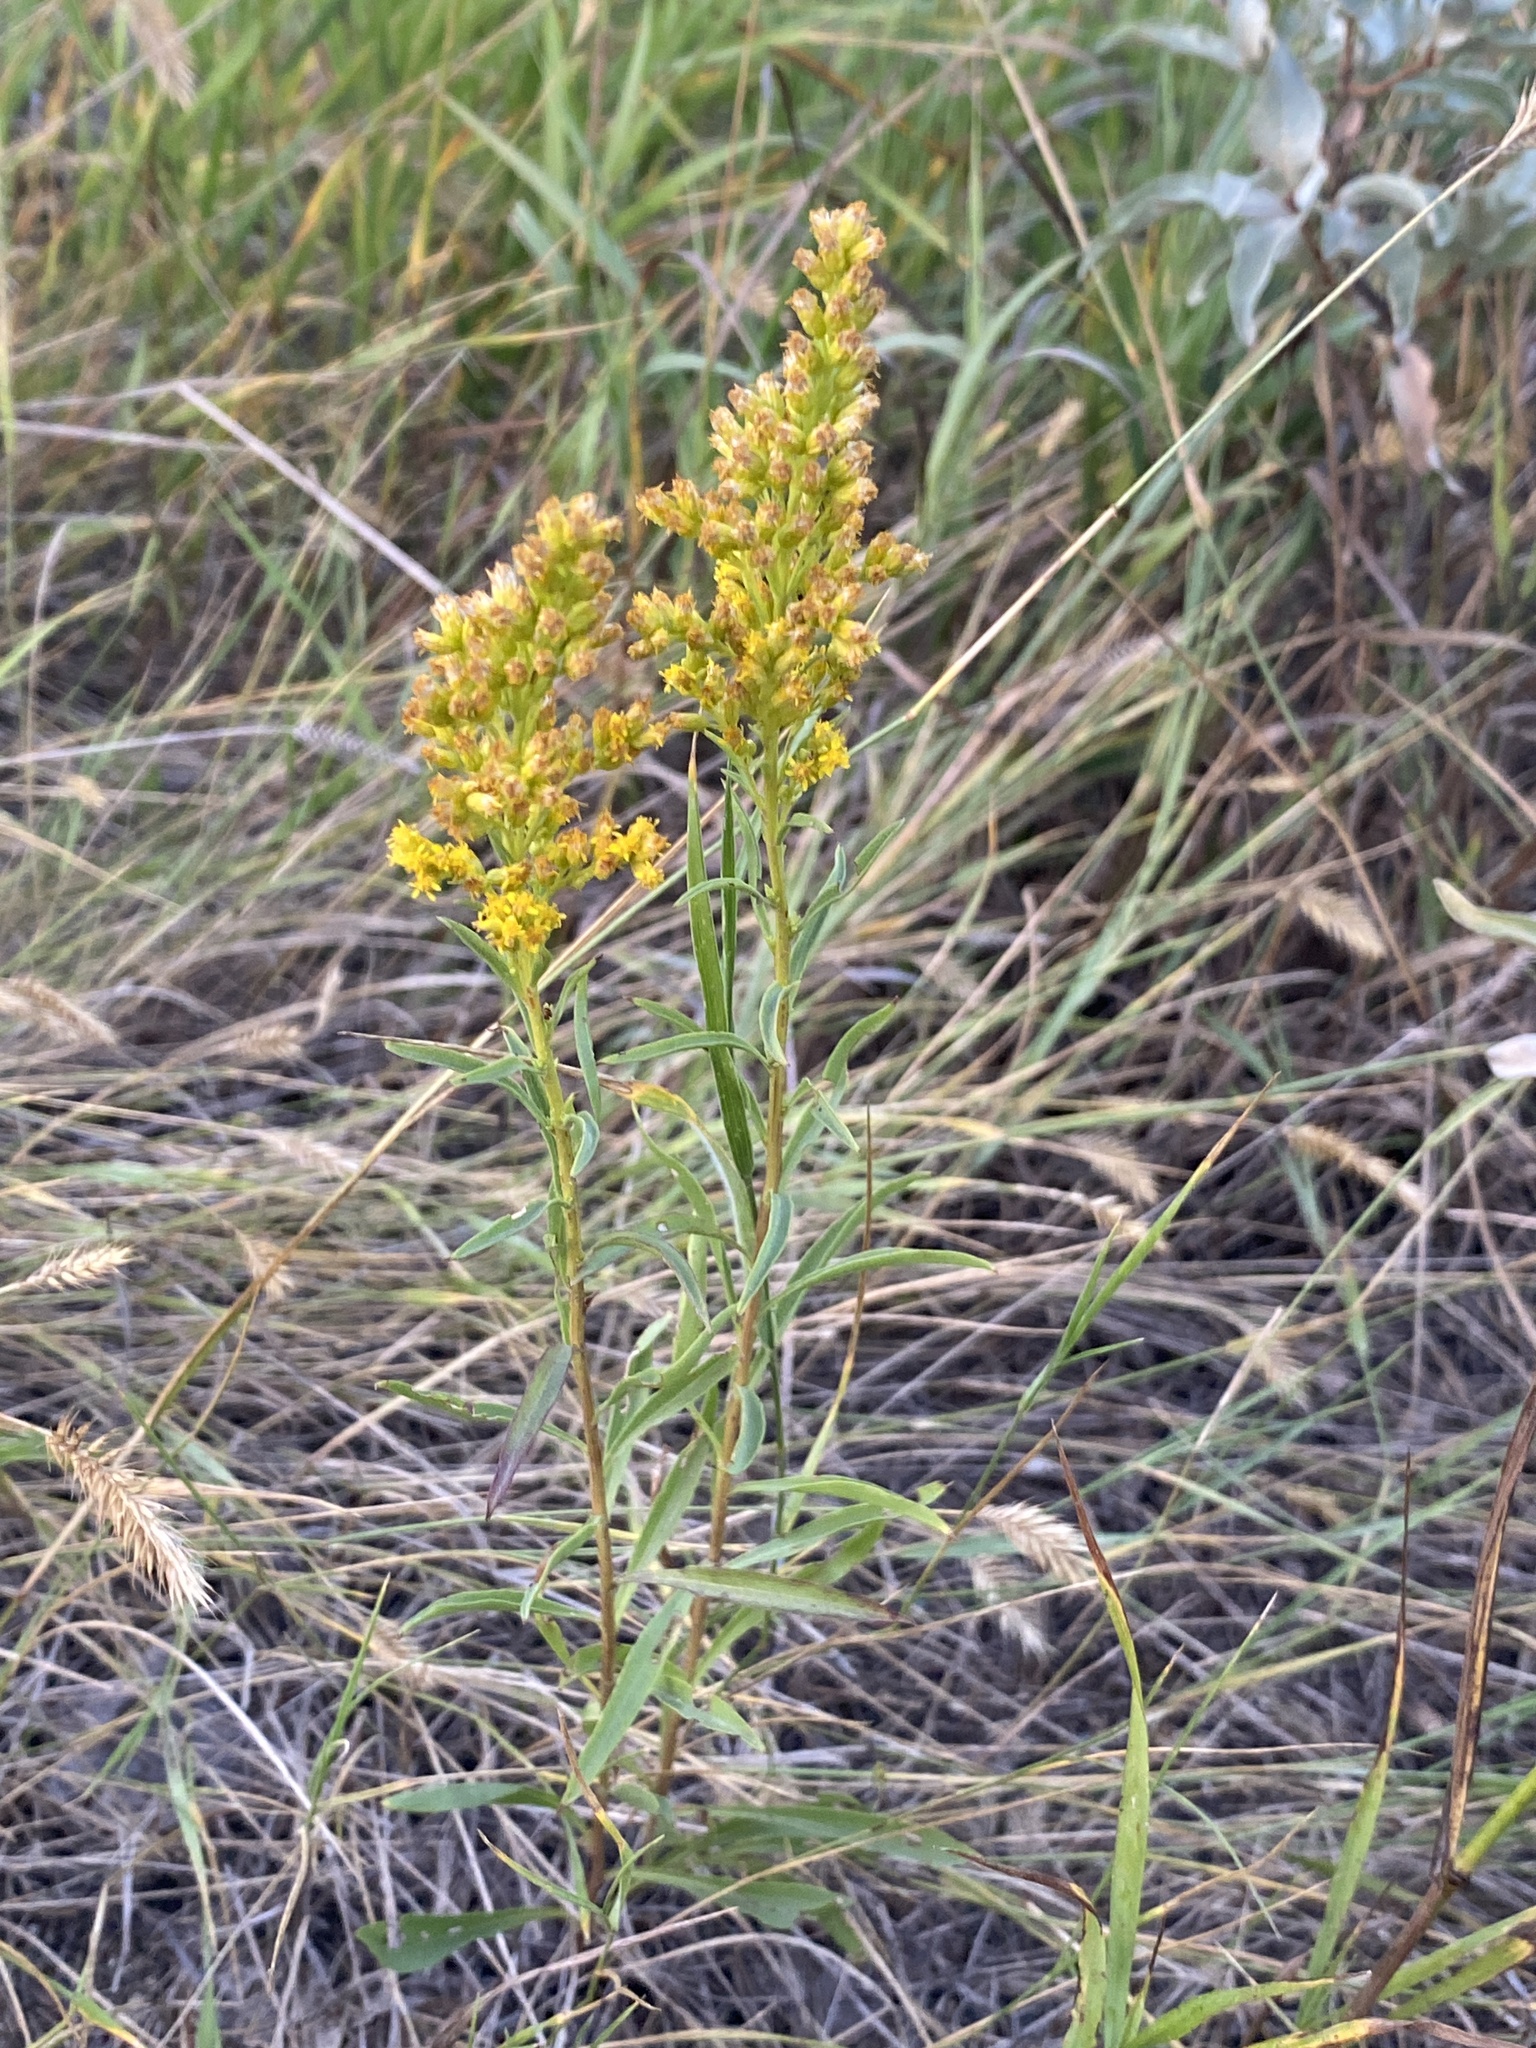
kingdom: Plantae
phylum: Tracheophyta
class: Magnoliopsida
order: Asterales
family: Asteraceae
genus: Solidago
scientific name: Solidago missouriensis
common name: Prairie goldenrod
